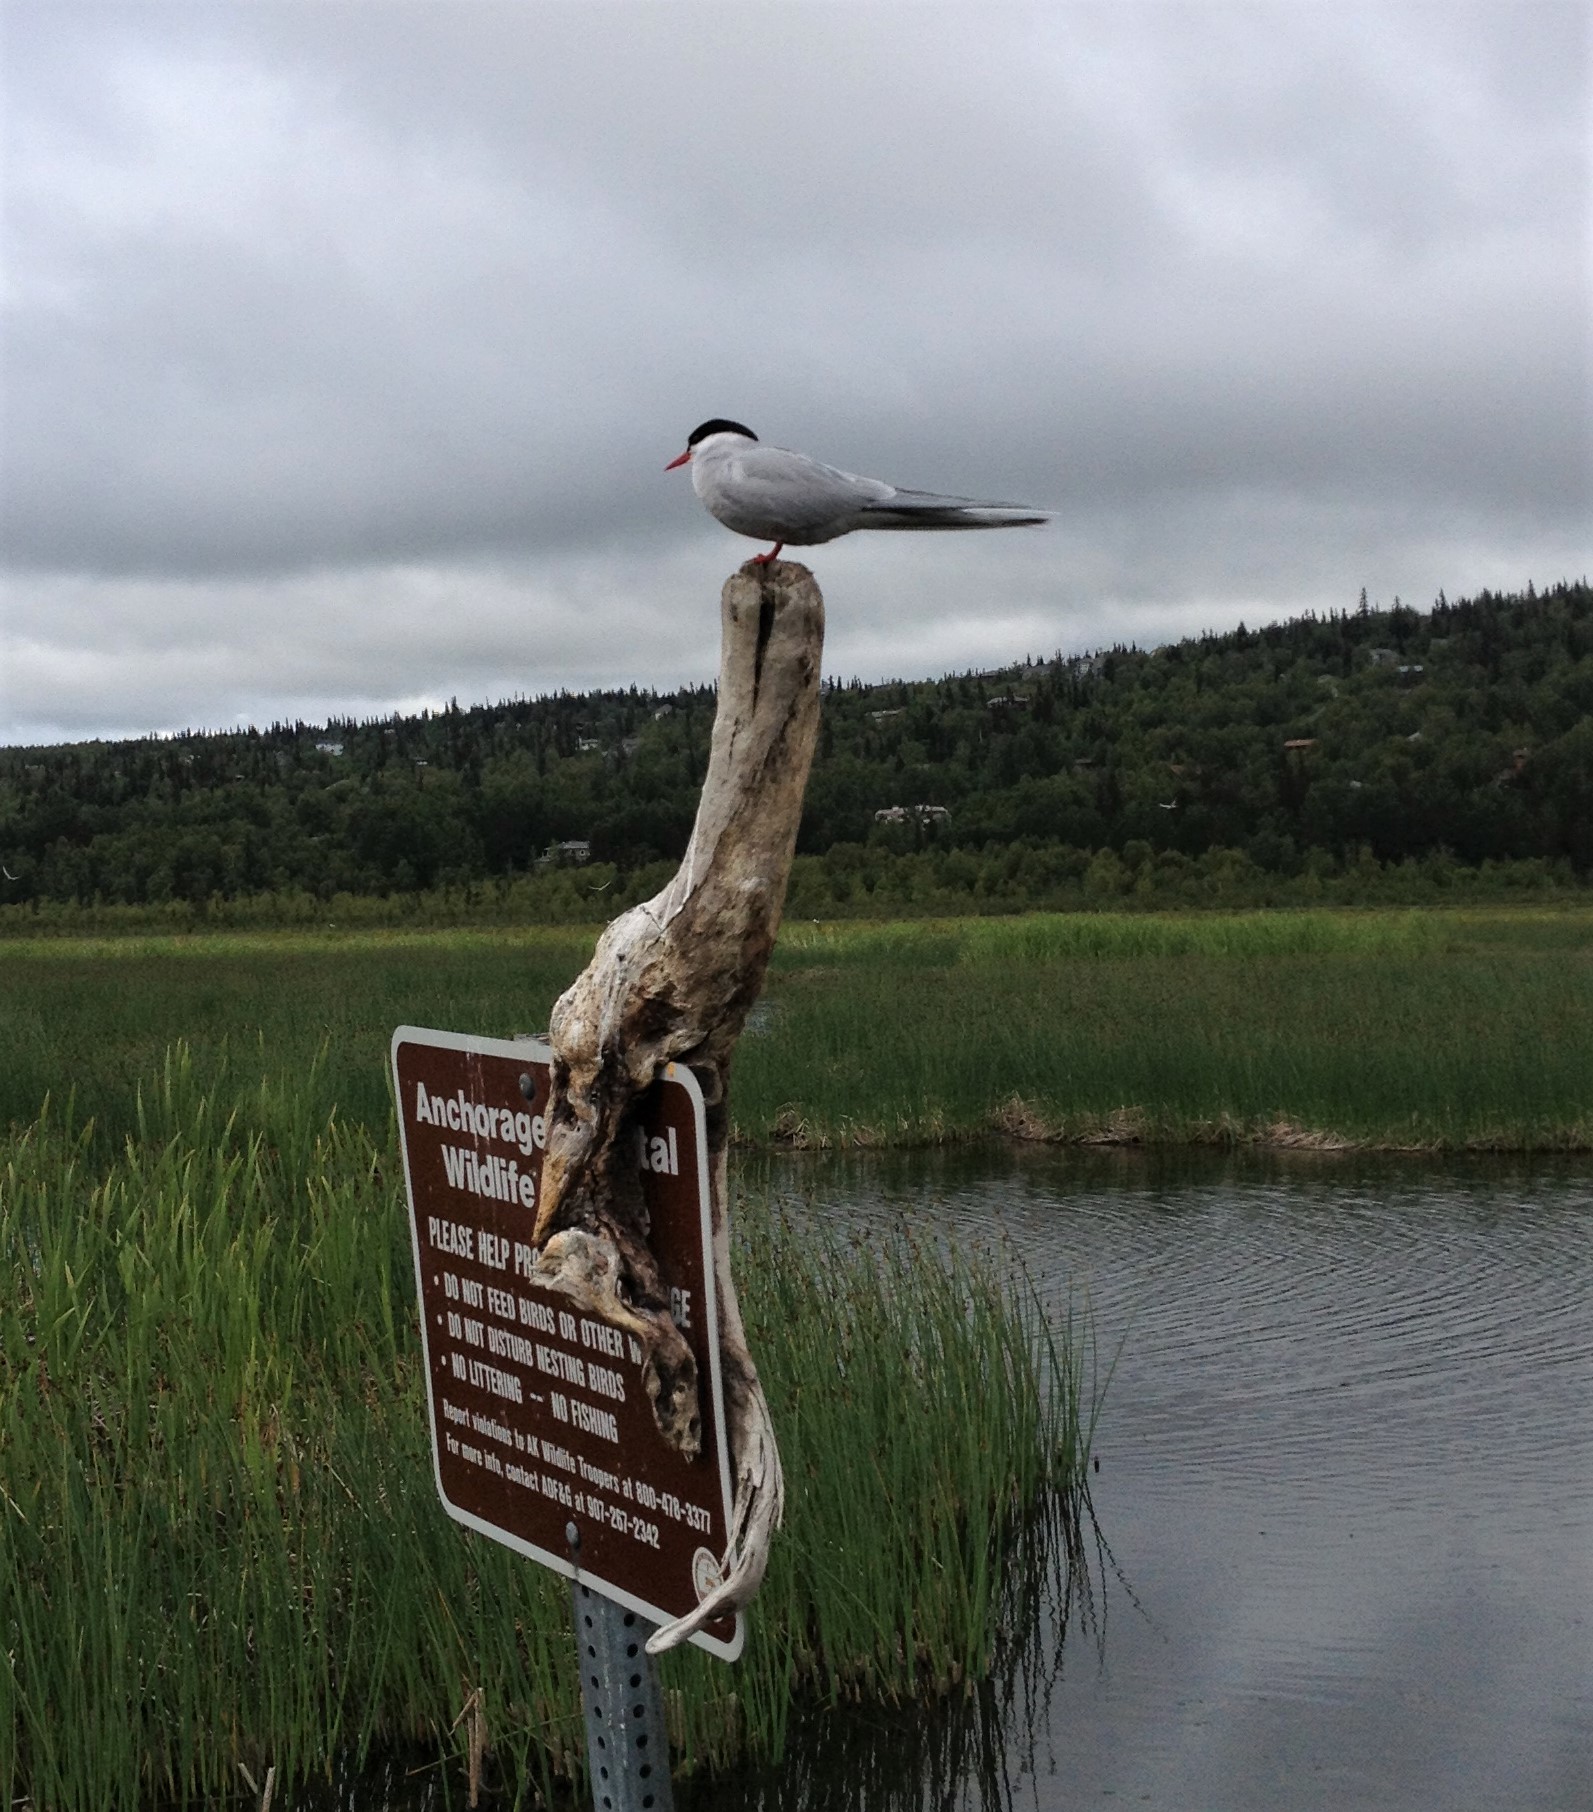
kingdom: Animalia
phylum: Chordata
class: Aves
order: Charadriiformes
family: Laridae
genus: Sterna
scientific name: Sterna paradisaea
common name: Arctic tern
